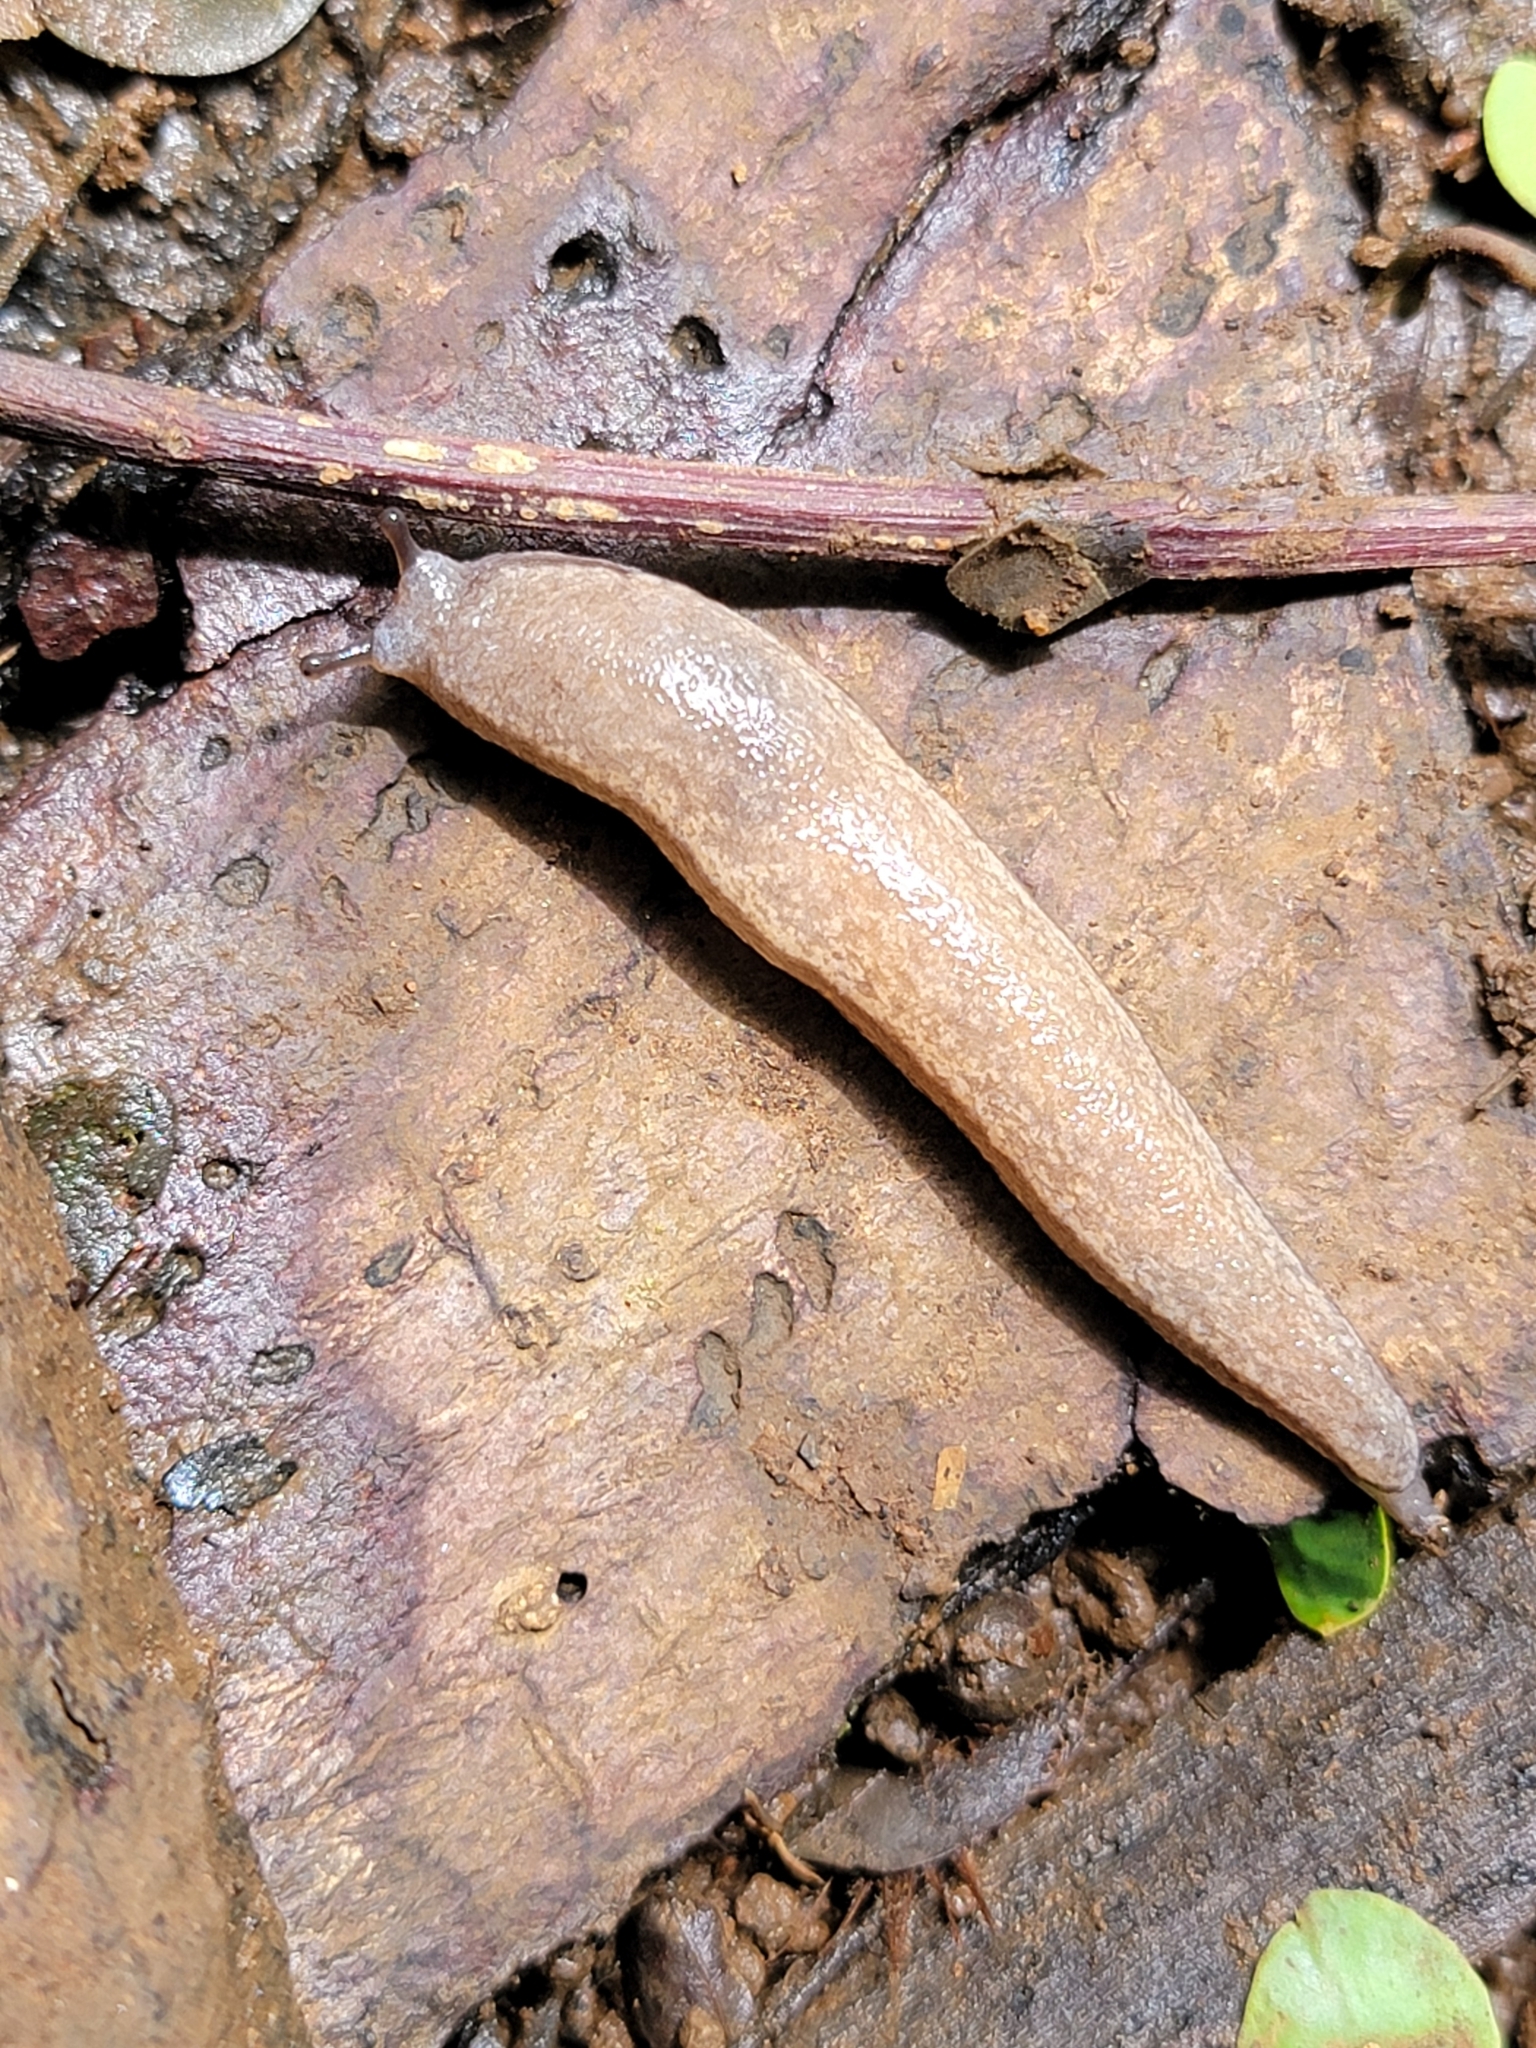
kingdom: Animalia
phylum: Mollusca
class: Gastropoda
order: Stylommatophora
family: Philomycidae
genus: Meghimatium
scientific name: Meghimatium bilineatum
